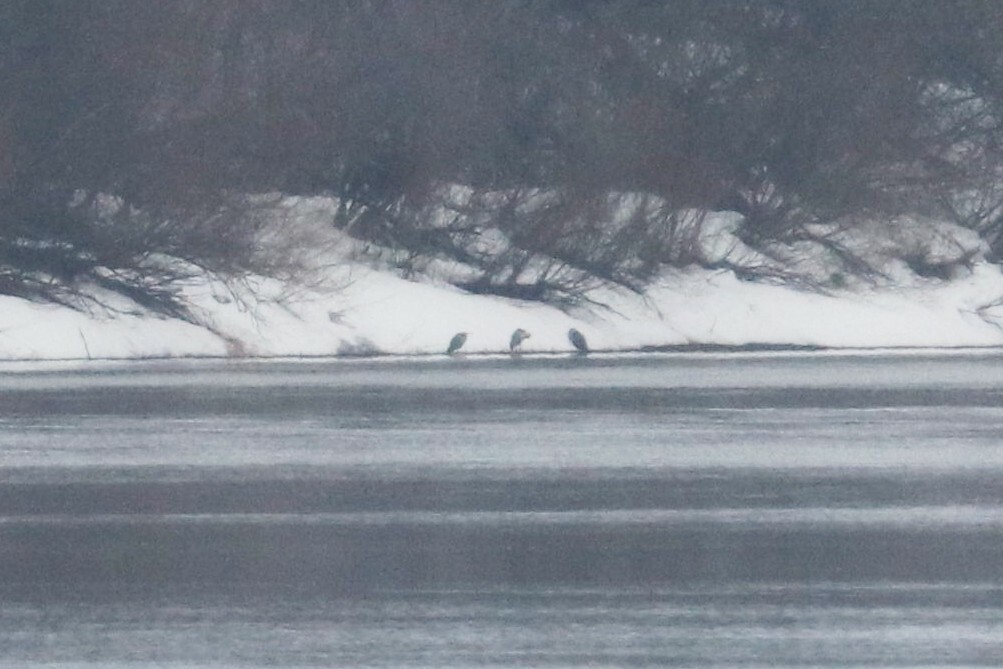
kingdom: Animalia
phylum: Chordata
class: Aves
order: Pelecaniformes
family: Ardeidae
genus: Ardea
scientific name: Ardea cinerea
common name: Grey heron
